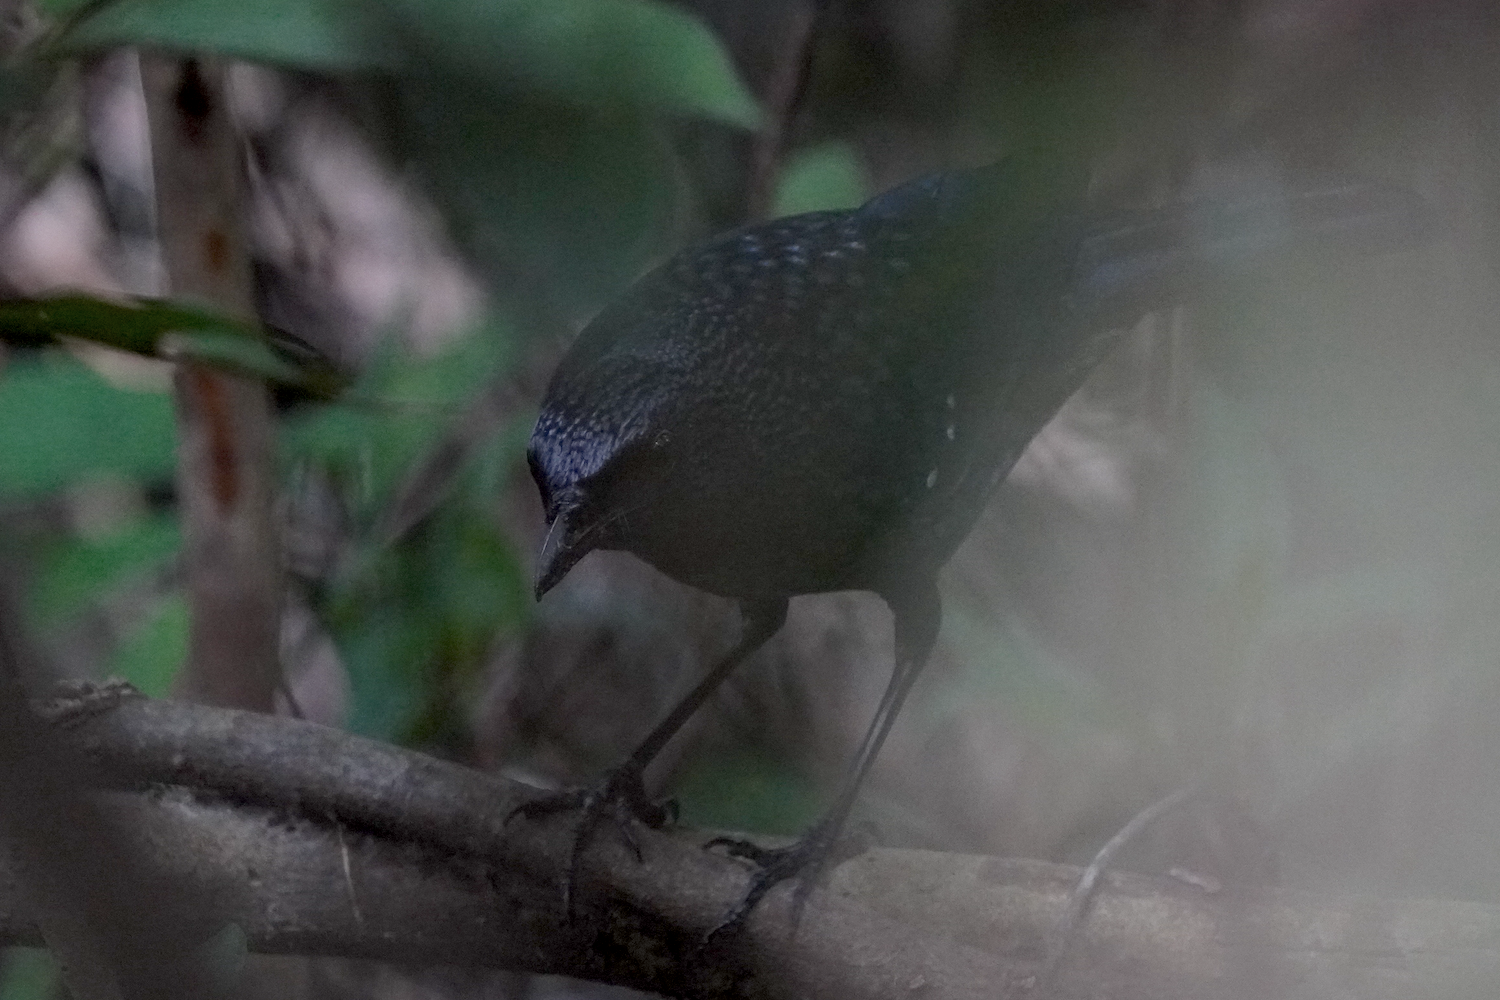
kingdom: Animalia
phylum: Chordata
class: Aves
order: Passeriformes
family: Muscicapidae
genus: Myophonus
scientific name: Myophonus caeruleus
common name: Blue whistling-thrush
